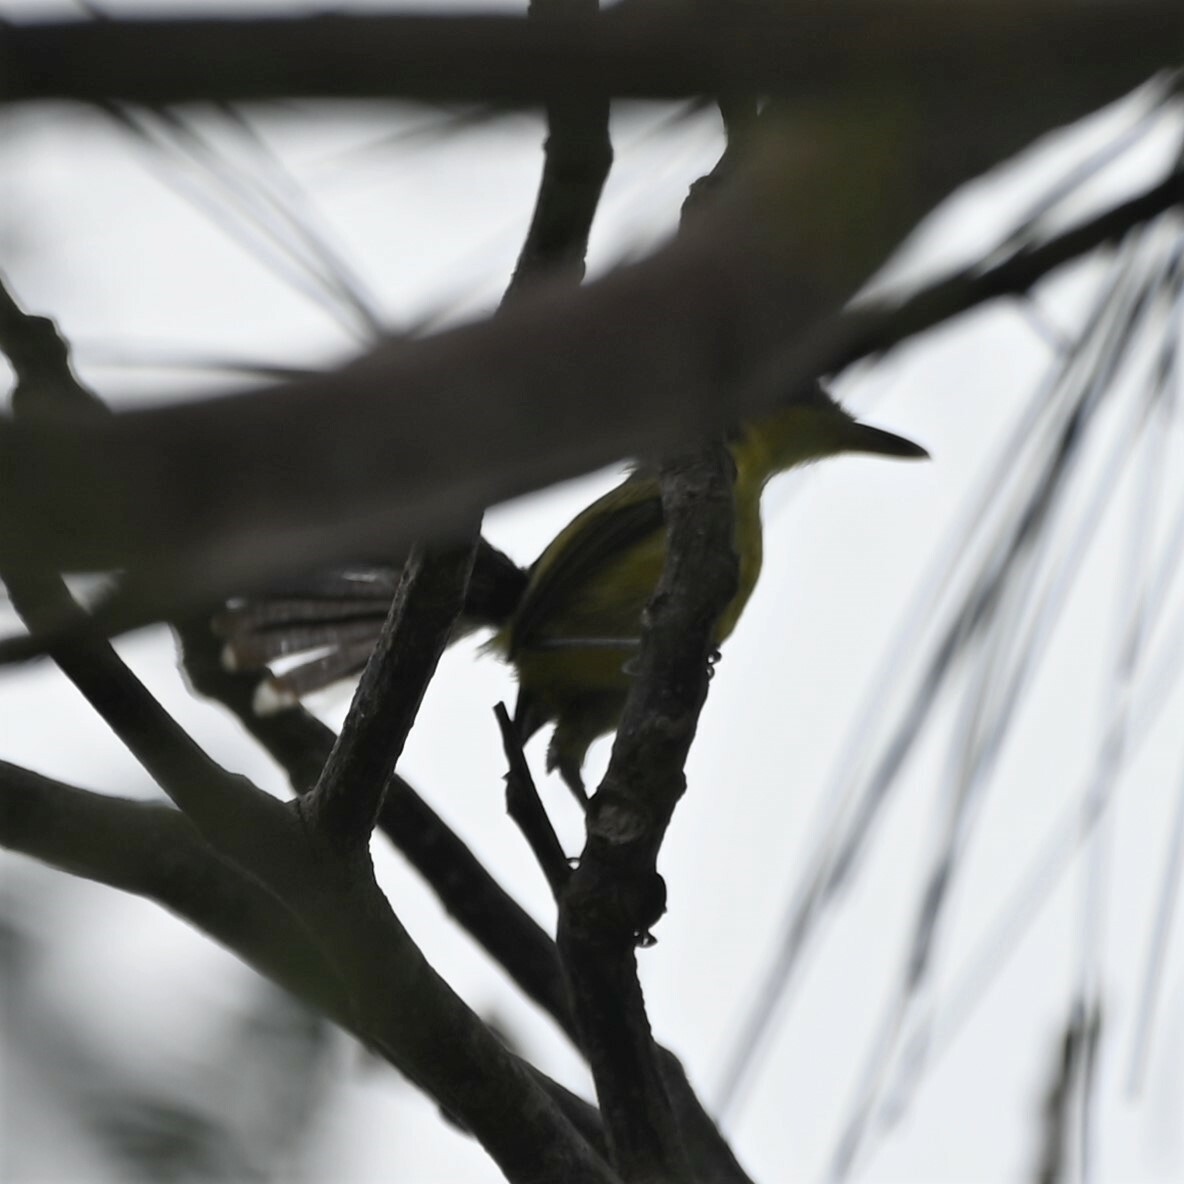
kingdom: Animalia
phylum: Chordata
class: Aves
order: Passeriformes
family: Tyrannidae
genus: Todirostrum
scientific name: Todirostrum cinereum
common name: Common tody-flycatcher
